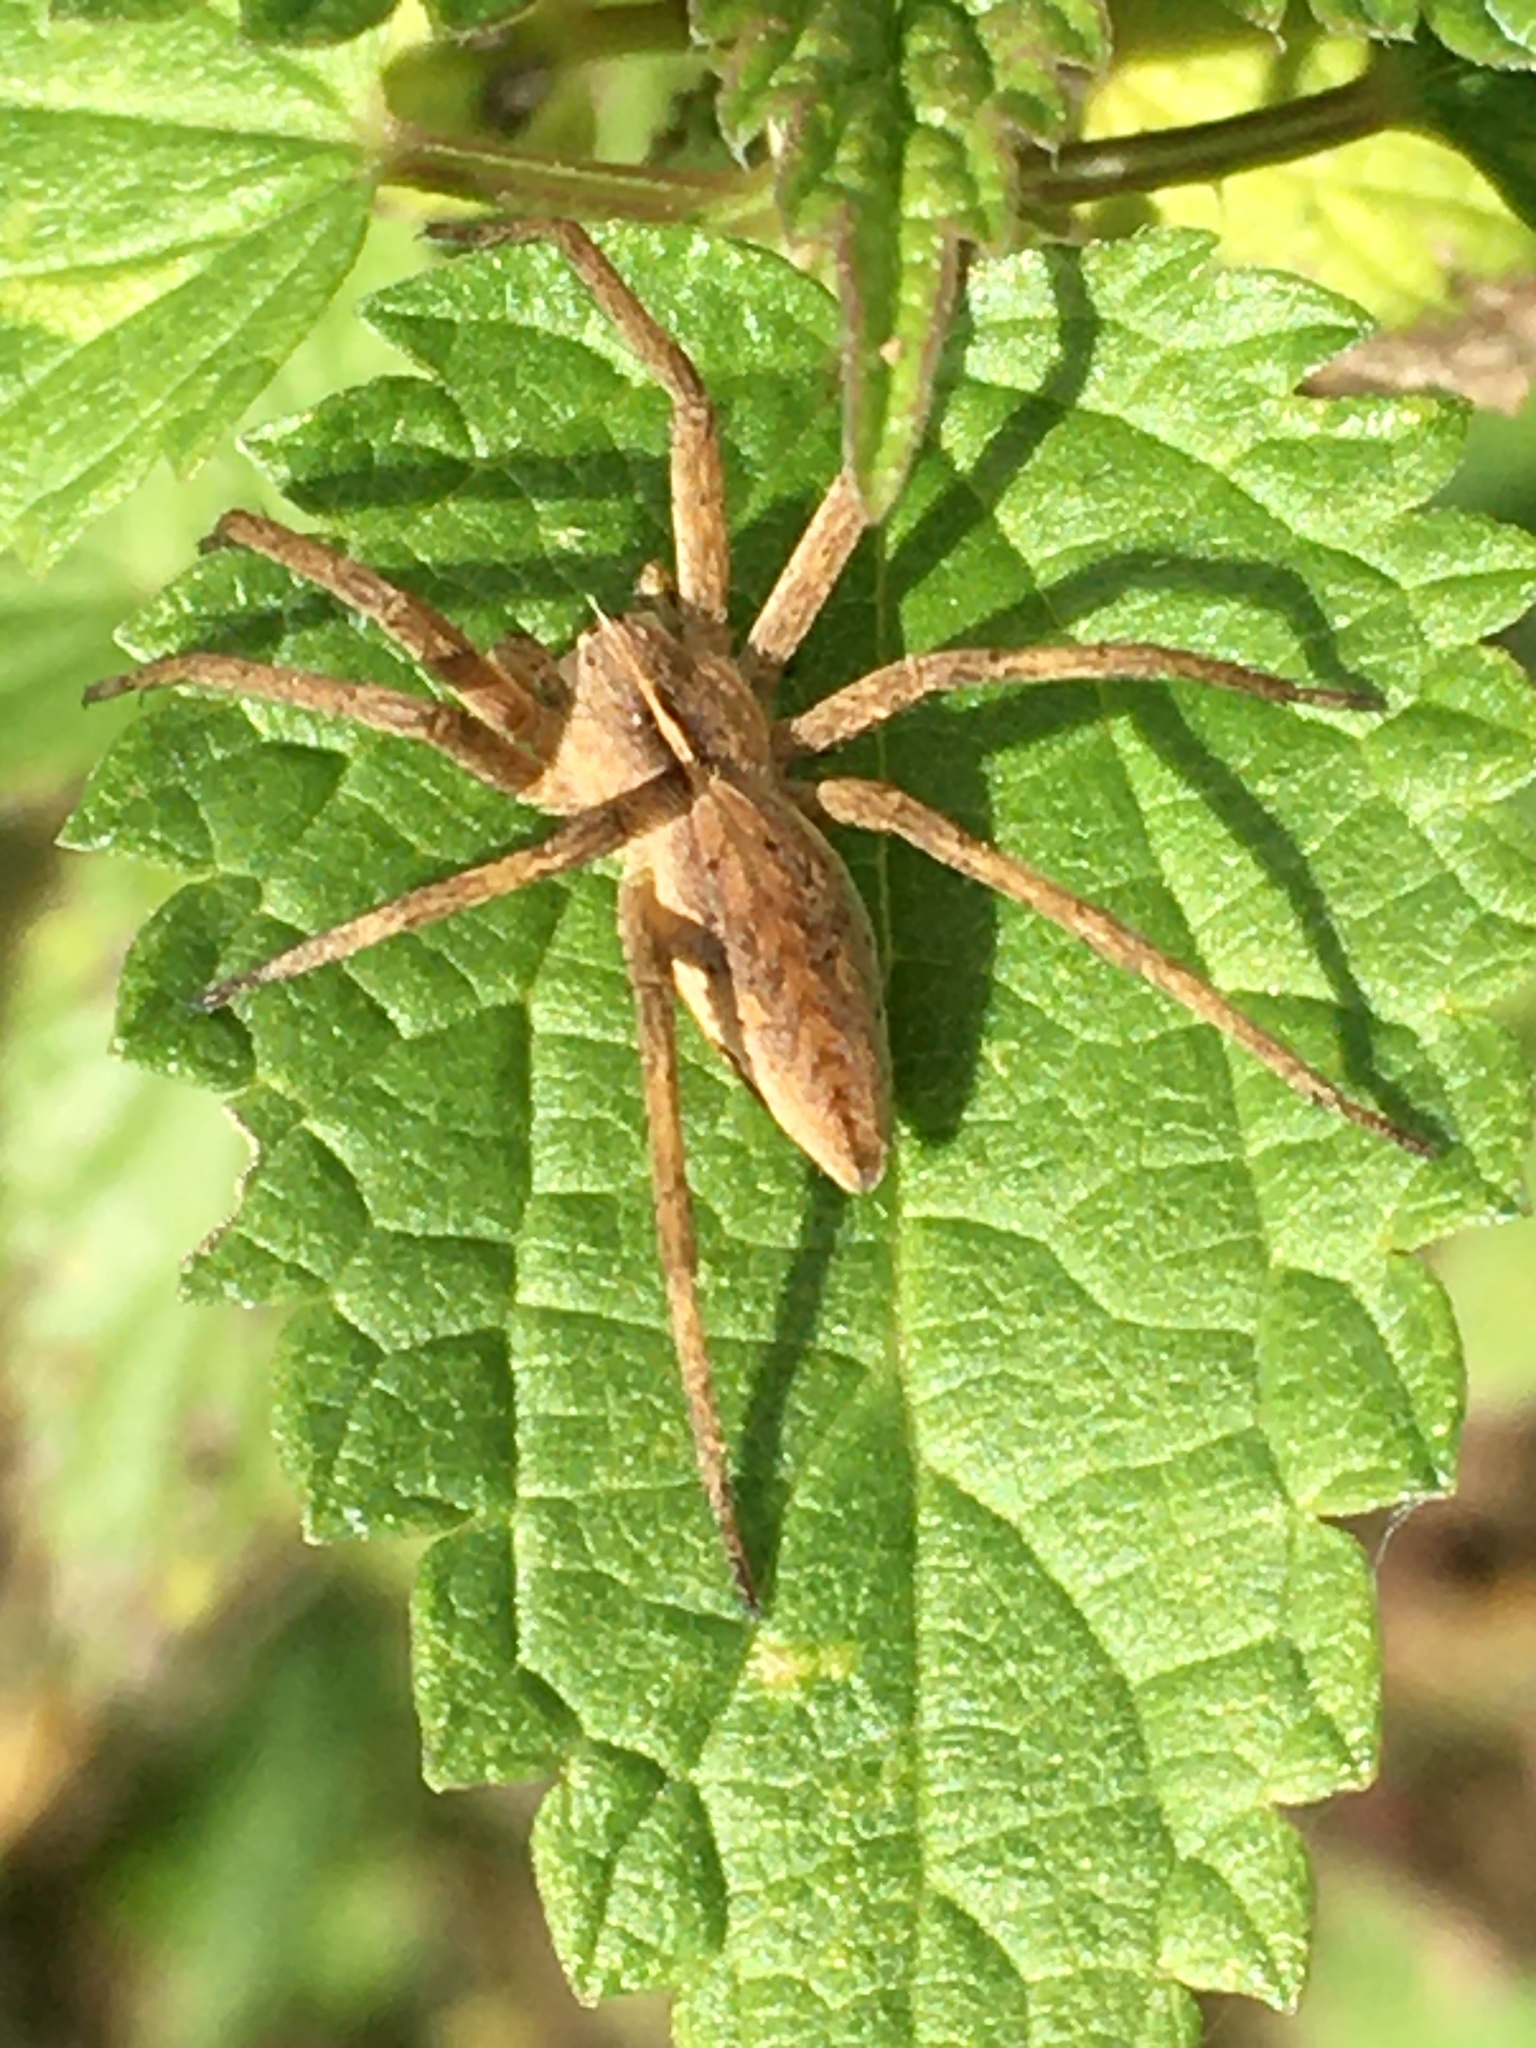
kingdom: Animalia
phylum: Arthropoda
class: Arachnida
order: Araneae
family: Pisauridae
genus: Pisaura
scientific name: Pisaura mirabilis
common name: Tent spider
